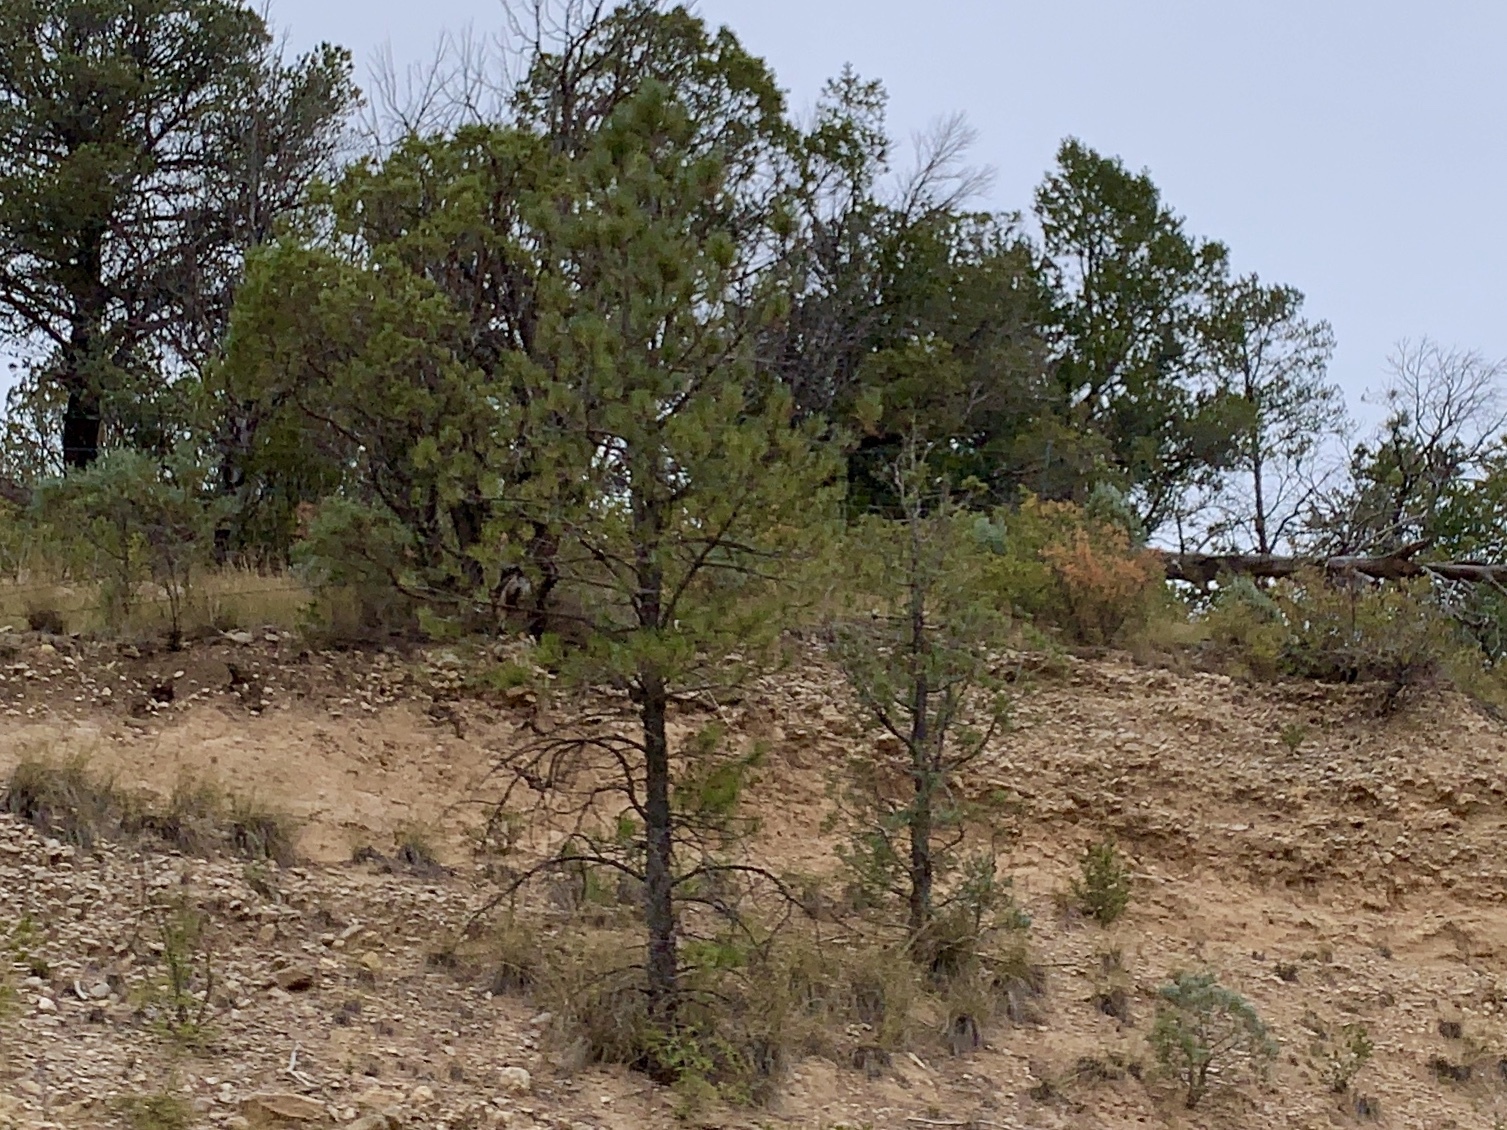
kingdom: Plantae
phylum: Tracheophyta
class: Pinopsida
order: Pinales
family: Pinaceae
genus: Pinus
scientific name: Pinus ponderosa
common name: Western yellow-pine
